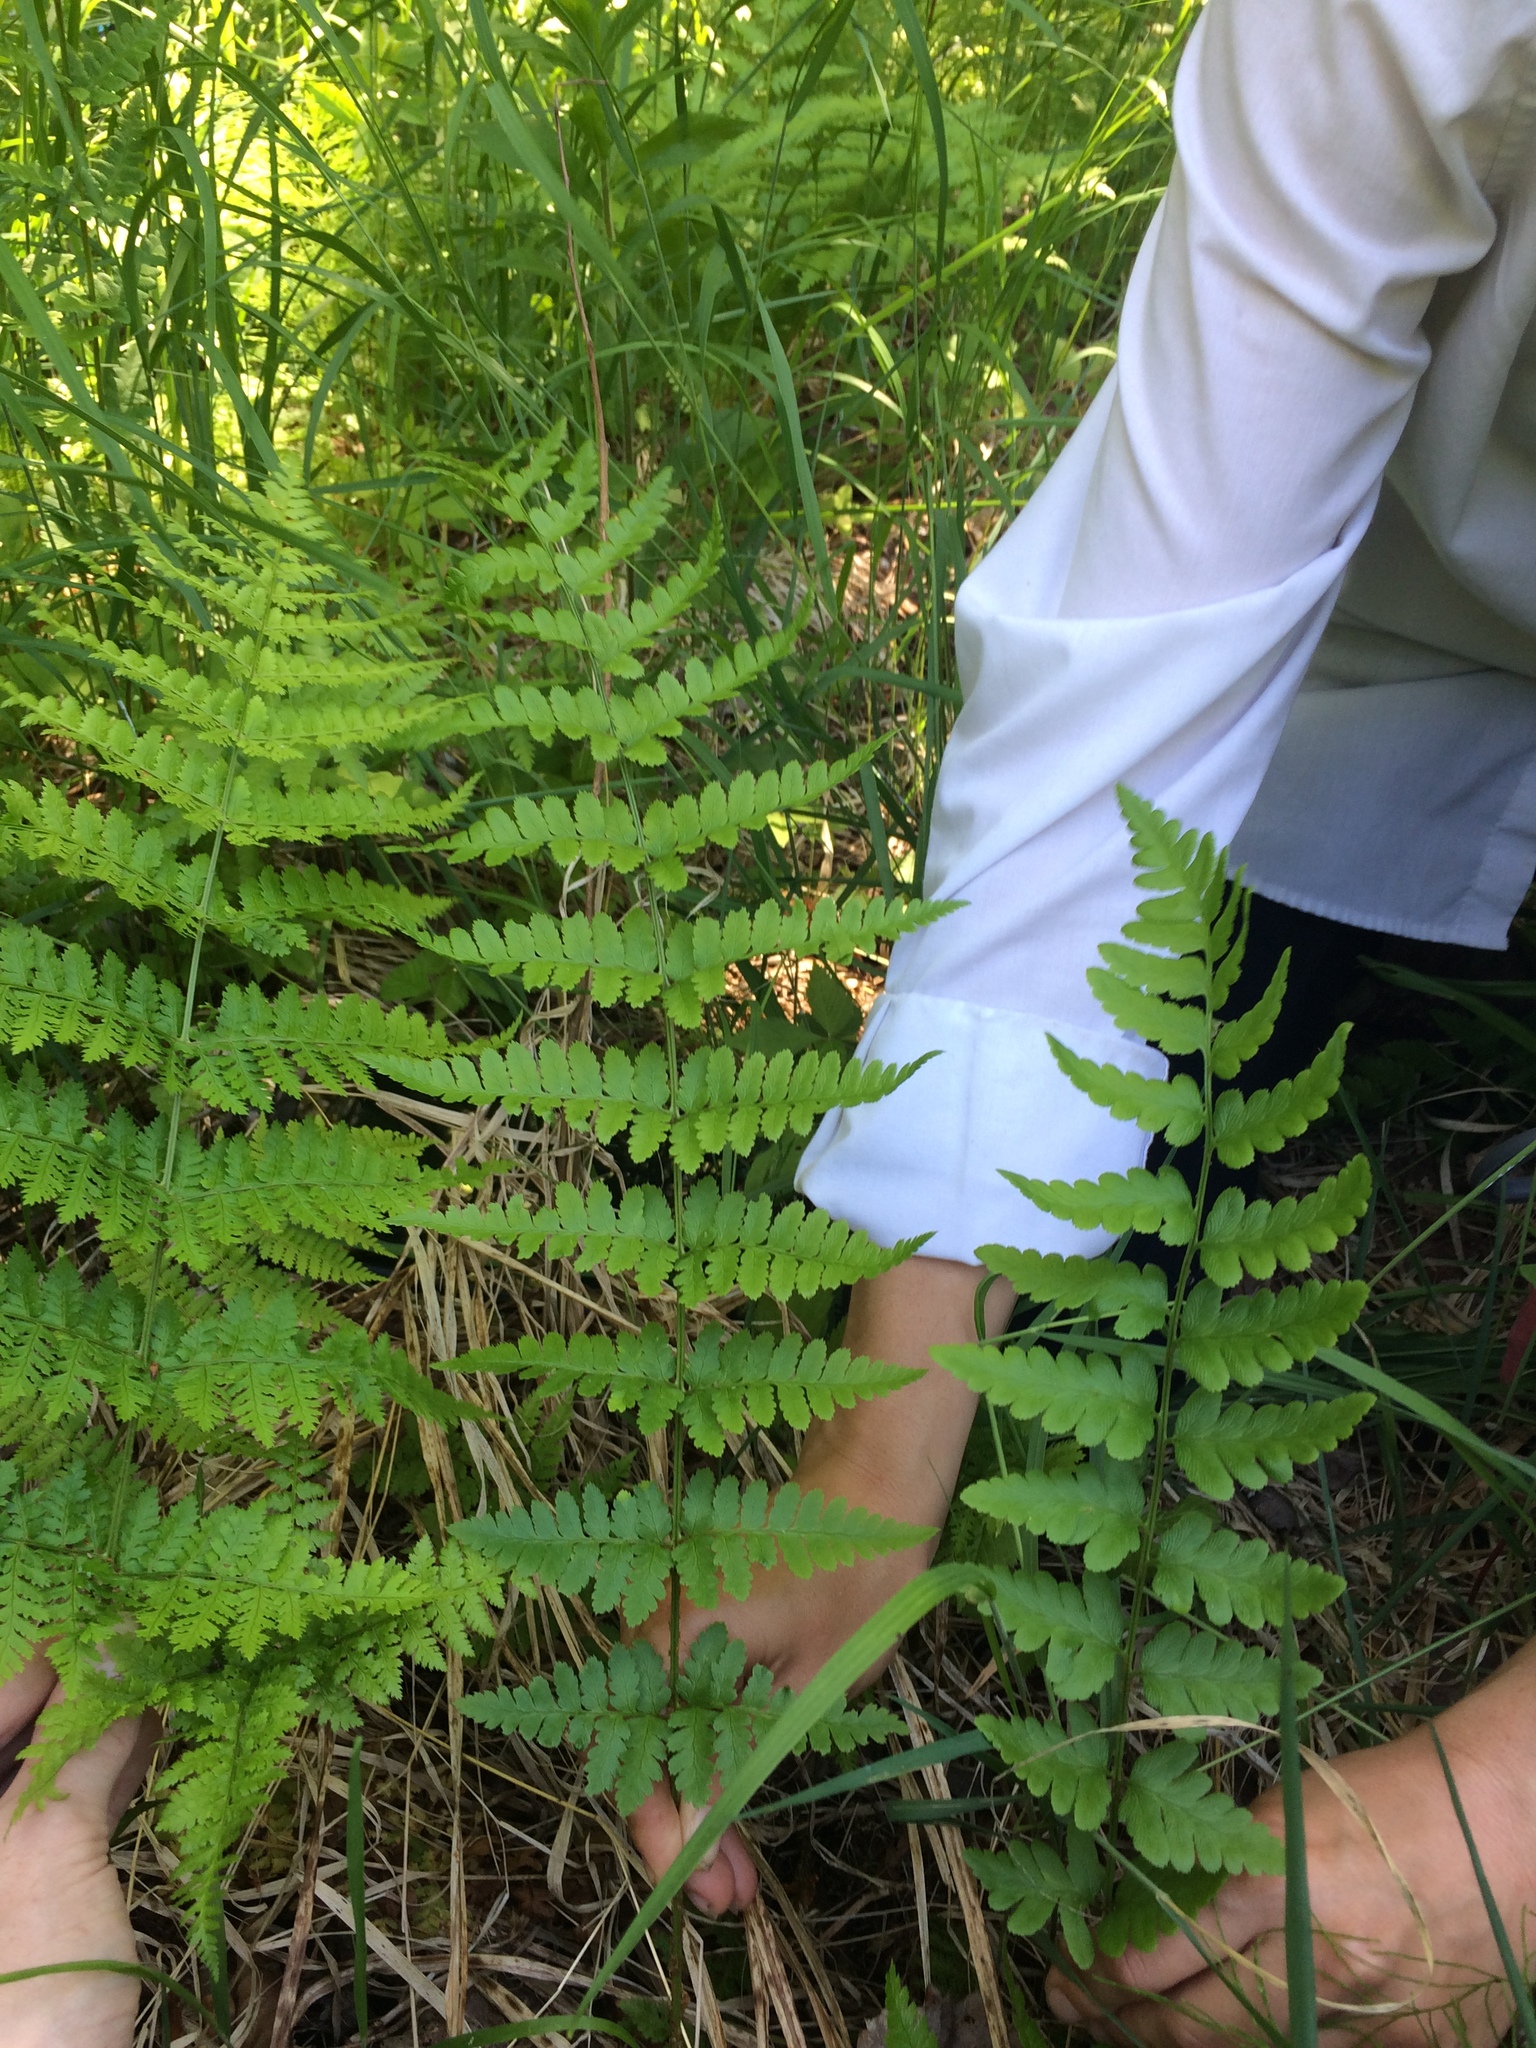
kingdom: Plantae
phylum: Tracheophyta
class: Polypodiopsida
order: Polypodiales
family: Dryopteridaceae
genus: Dryopteris
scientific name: Dryopteris boottii
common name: Boott's fern
